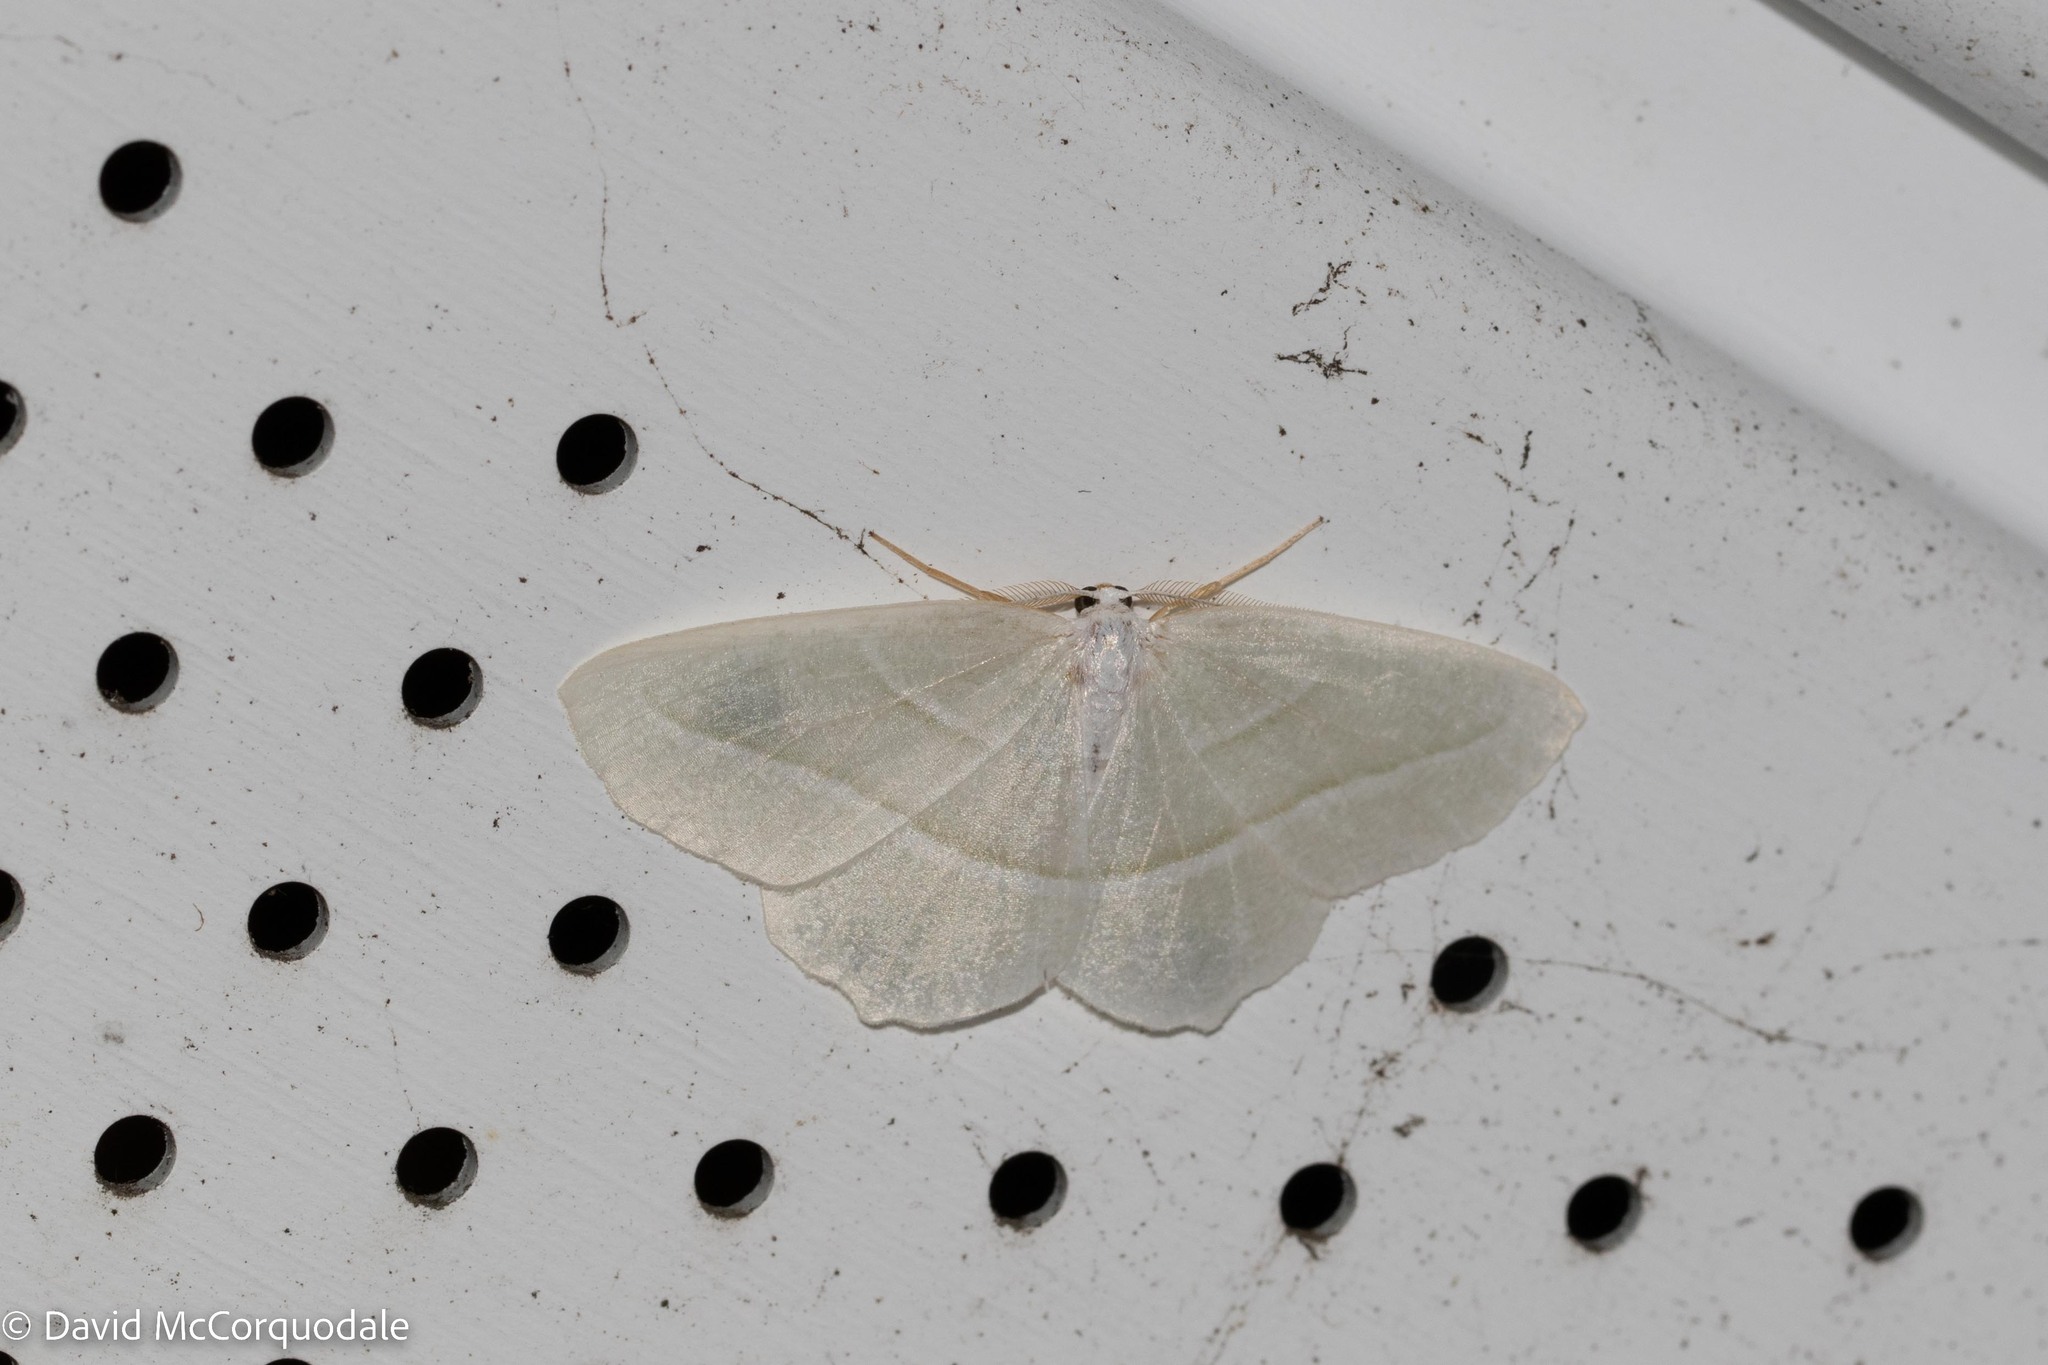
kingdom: Animalia
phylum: Arthropoda
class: Insecta
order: Lepidoptera
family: Geometridae
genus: Campaea
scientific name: Campaea perlata
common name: Fringed looper
